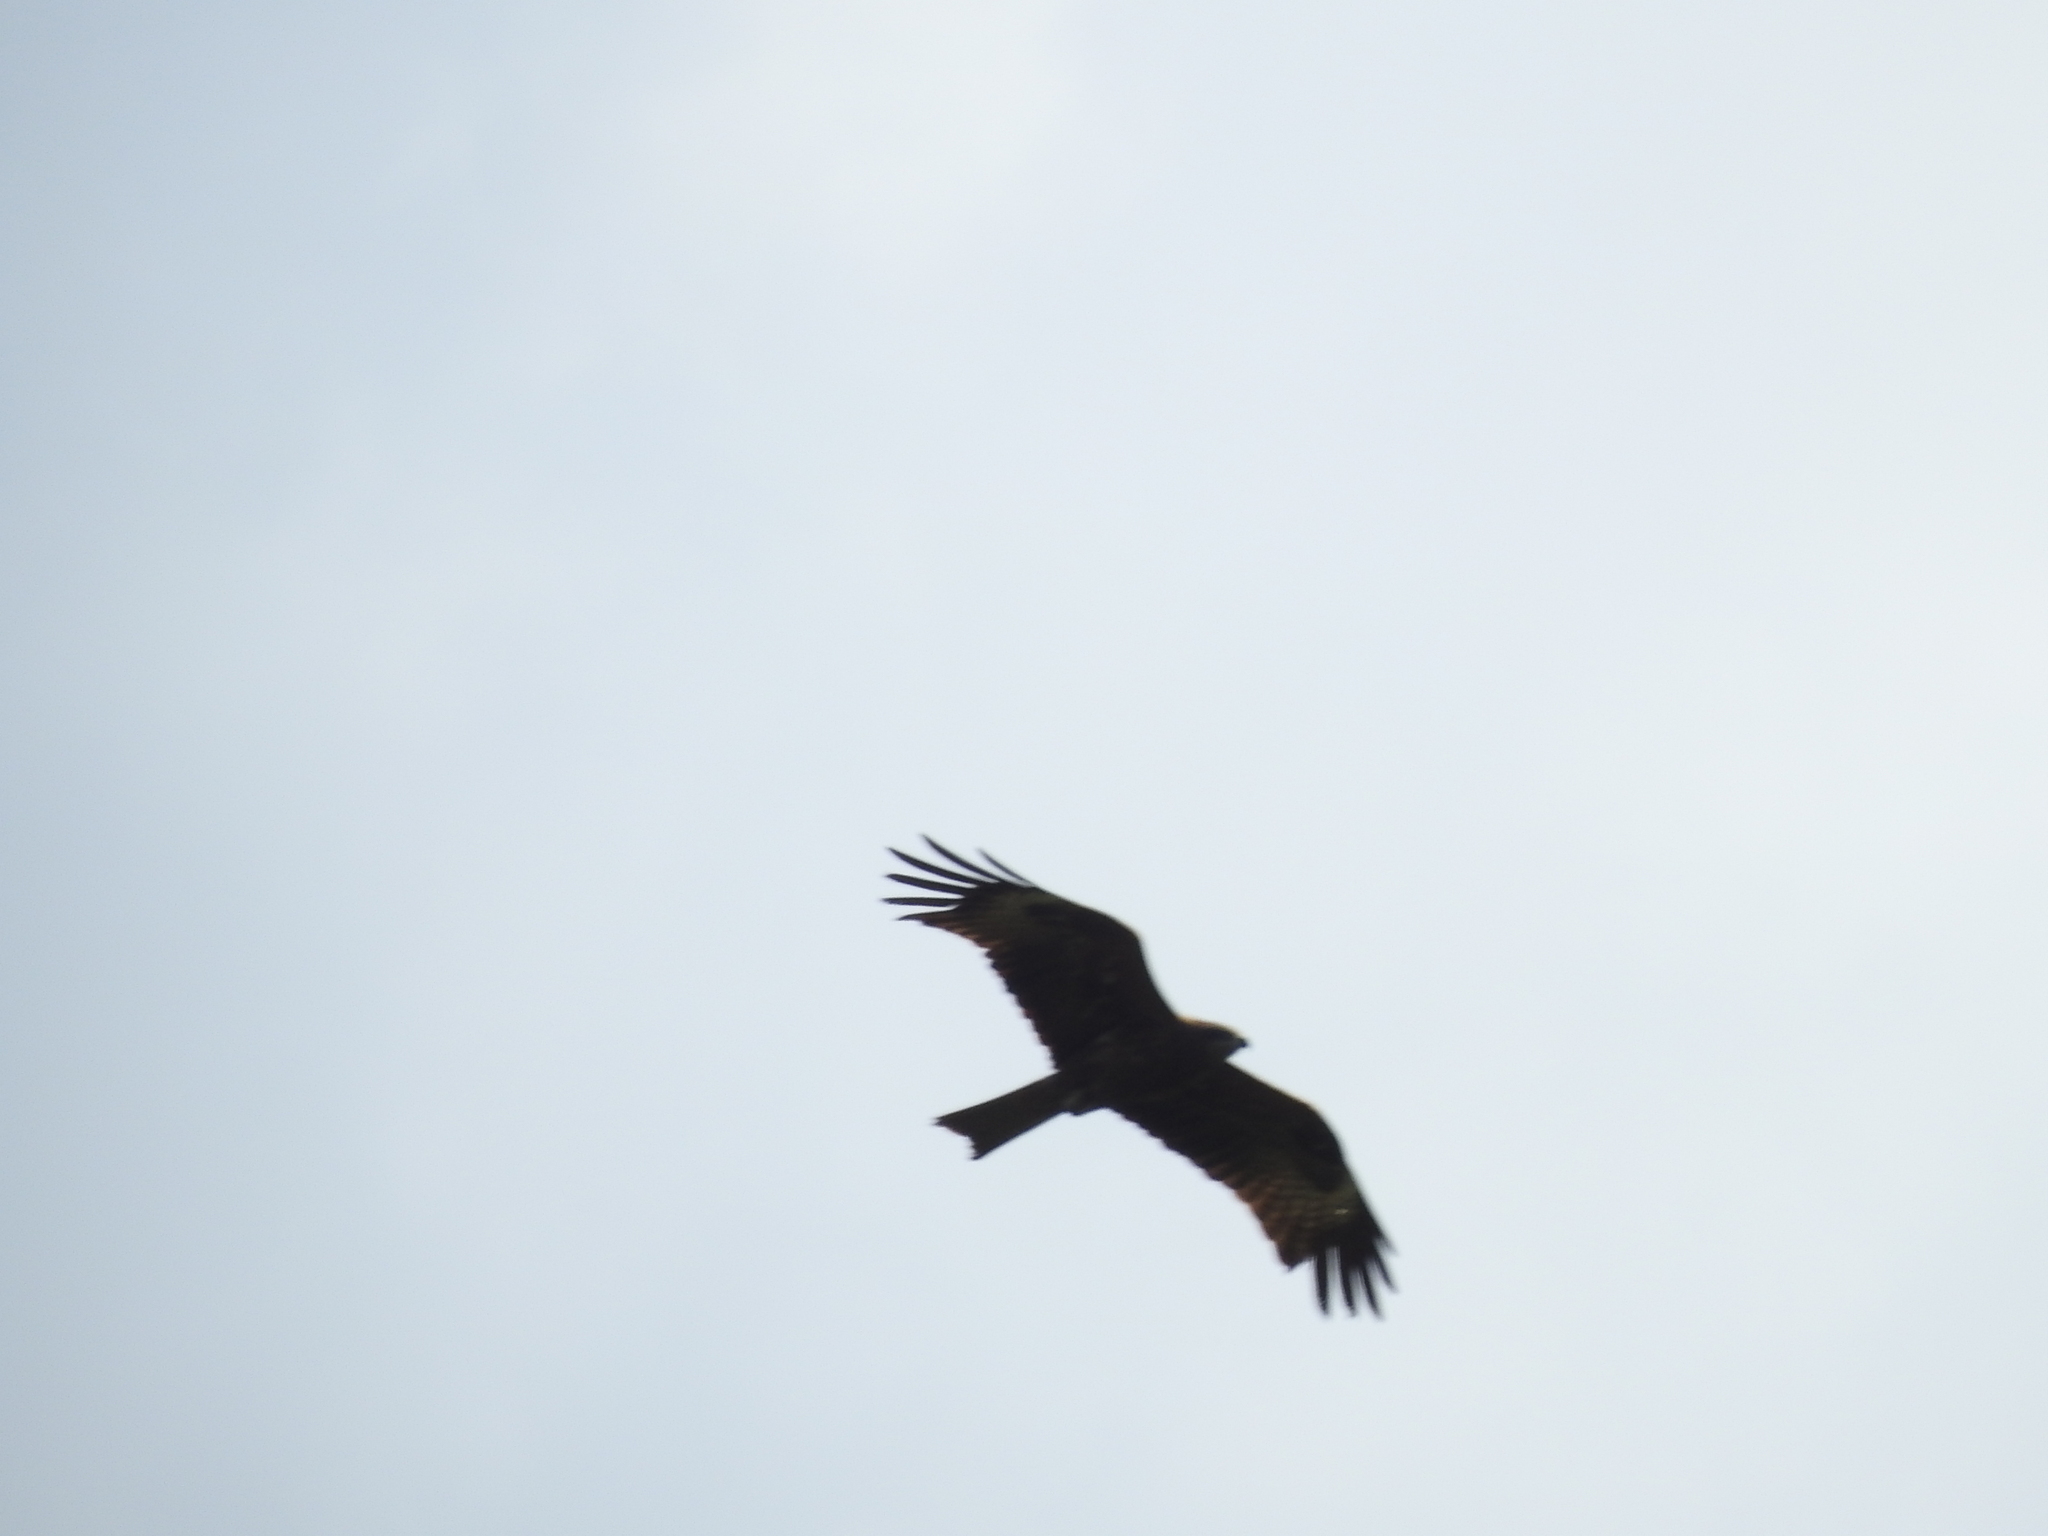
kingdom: Animalia
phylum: Chordata
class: Aves
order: Accipitriformes
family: Accipitridae
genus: Milvus
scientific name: Milvus migrans
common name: Black kite
